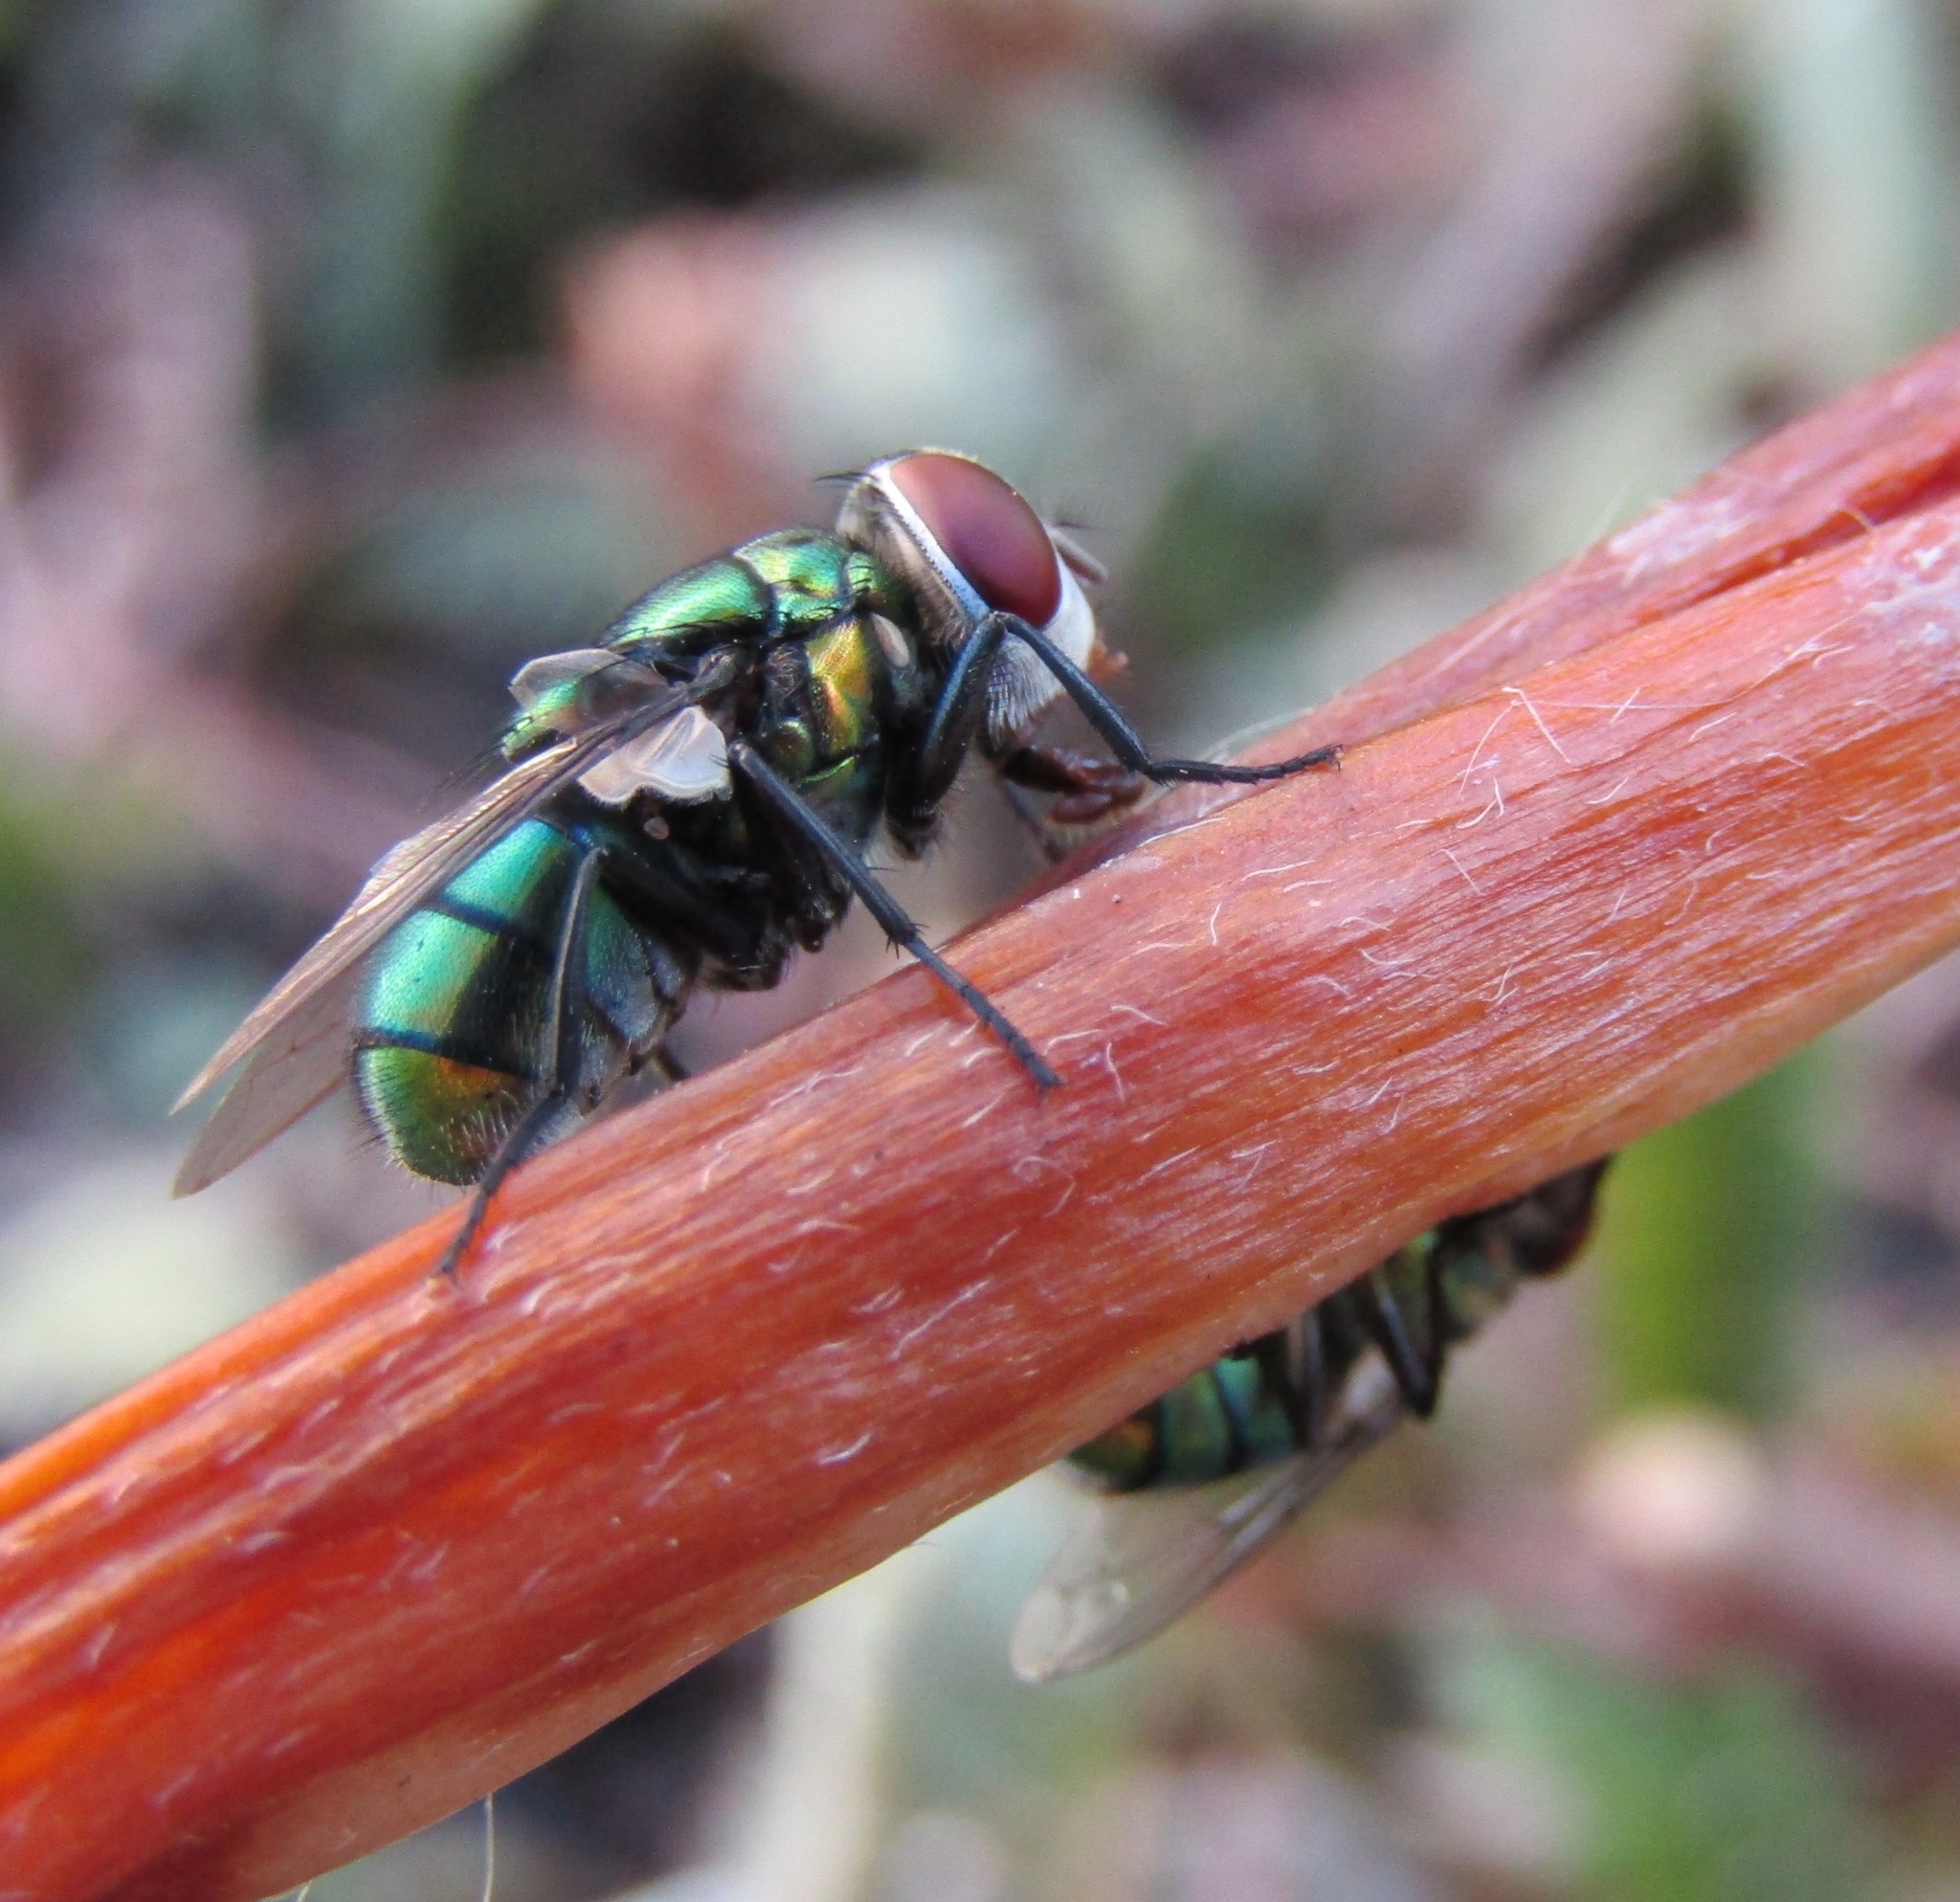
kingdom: Animalia
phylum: Arthropoda
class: Insecta
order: Diptera
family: Calliphoridae
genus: Chrysomya
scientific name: Chrysomya rufifacies
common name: Blow fly
